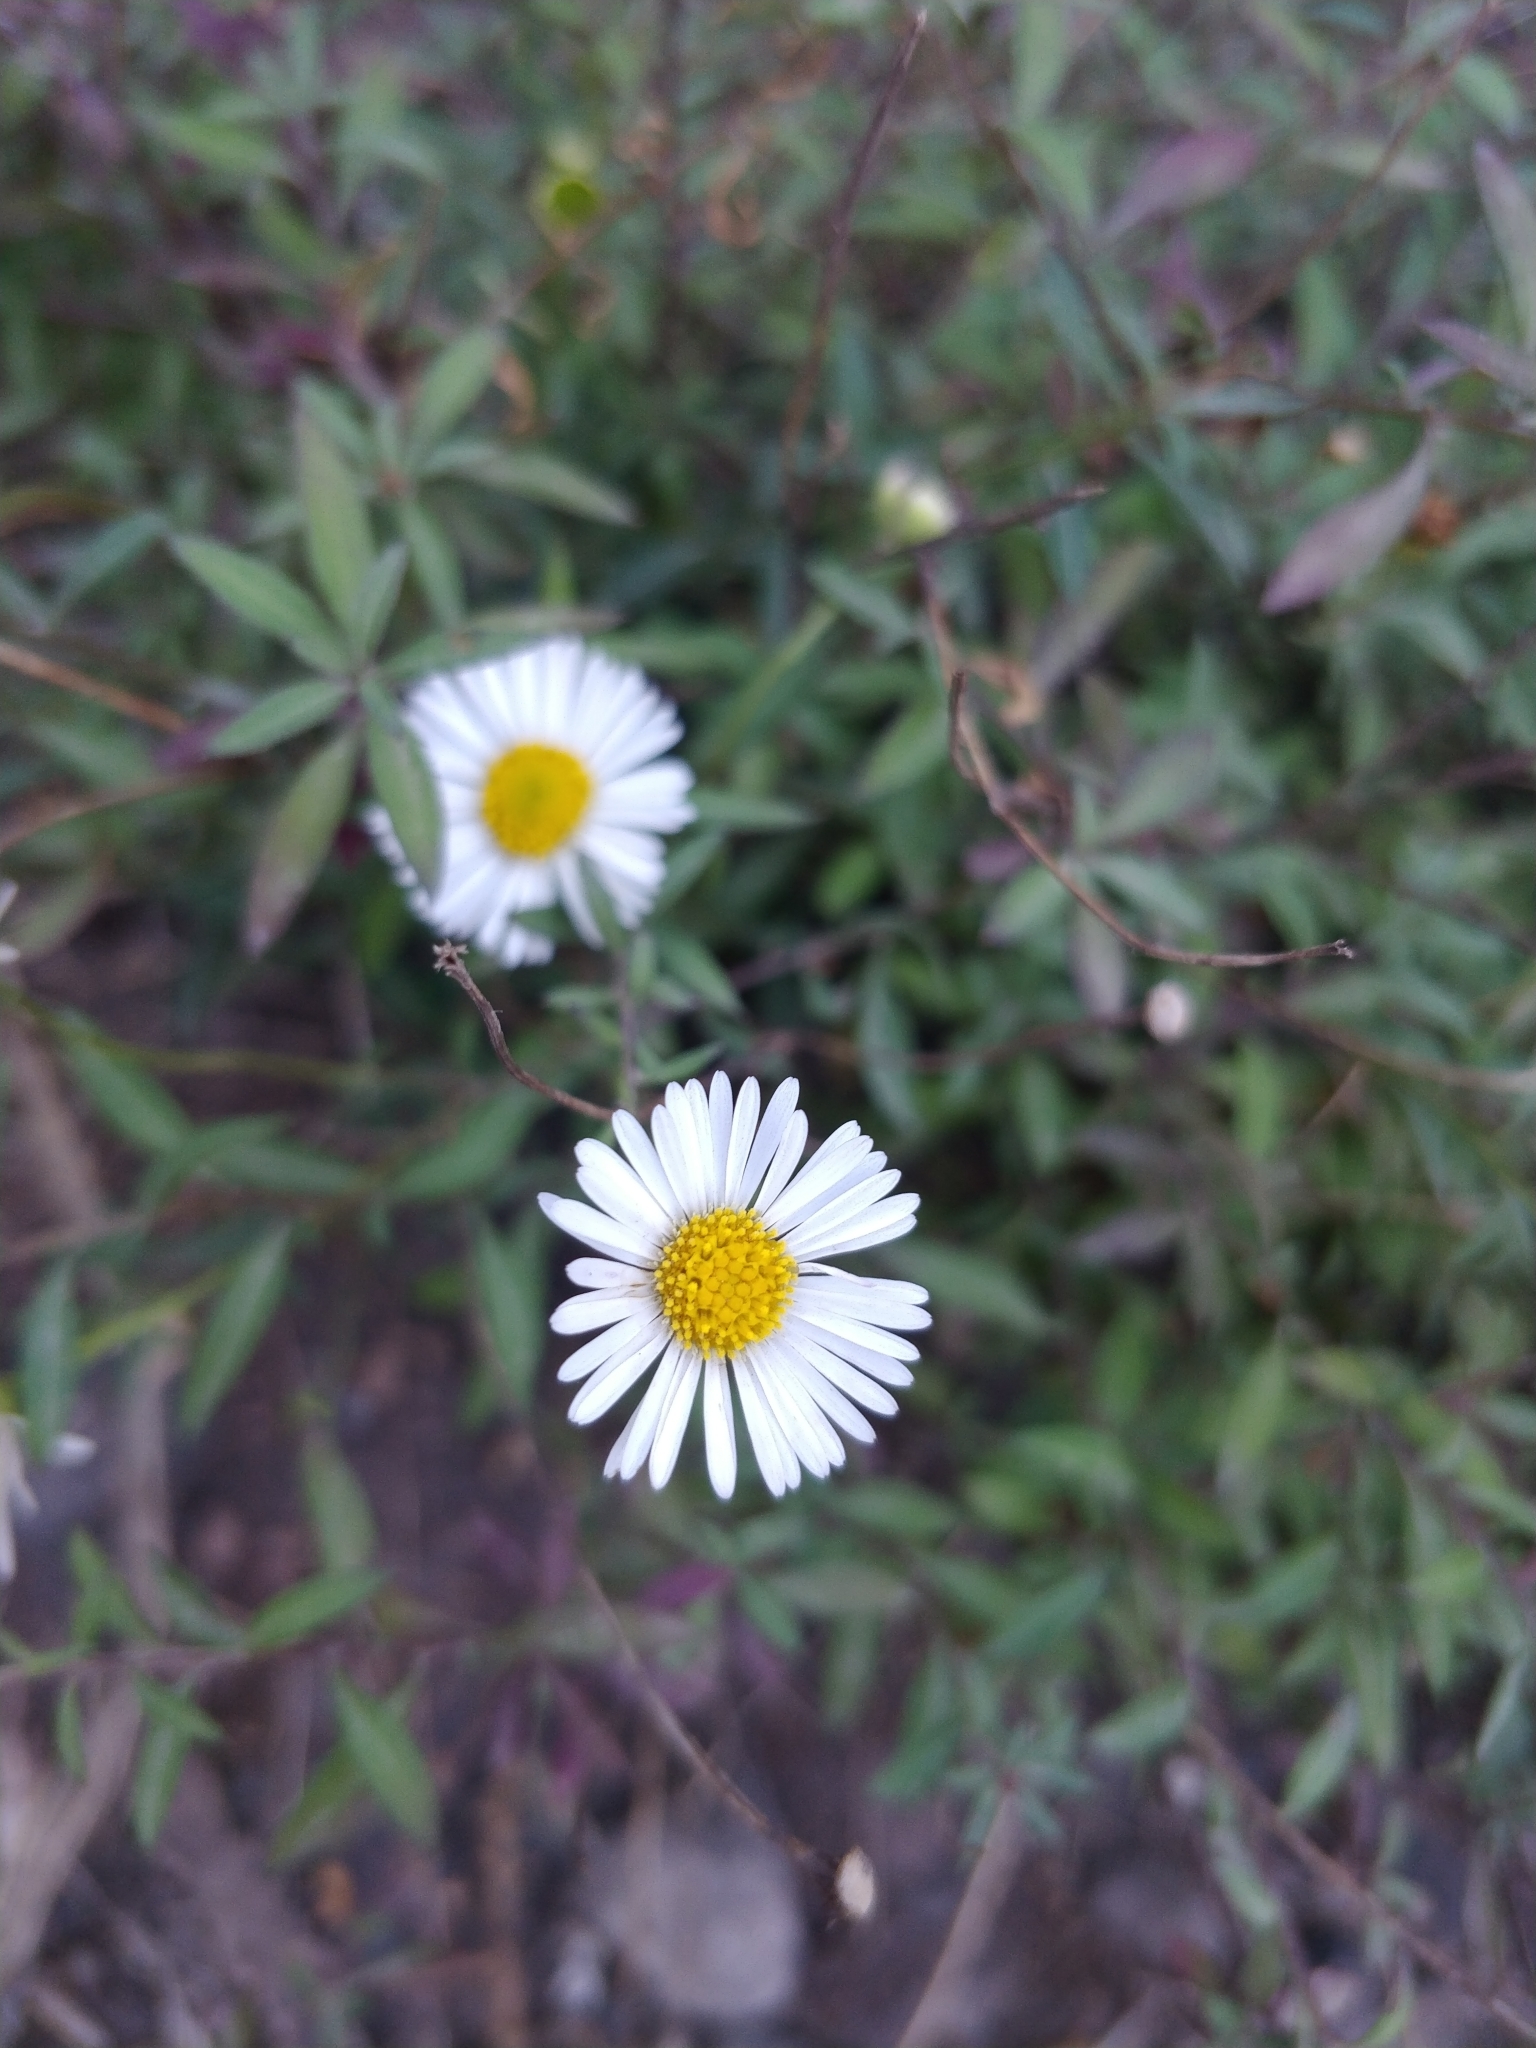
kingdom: Plantae
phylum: Tracheophyta
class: Magnoliopsida
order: Asterales
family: Asteraceae
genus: Erigeron
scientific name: Erigeron karvinskianus
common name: Mexican fleabane
